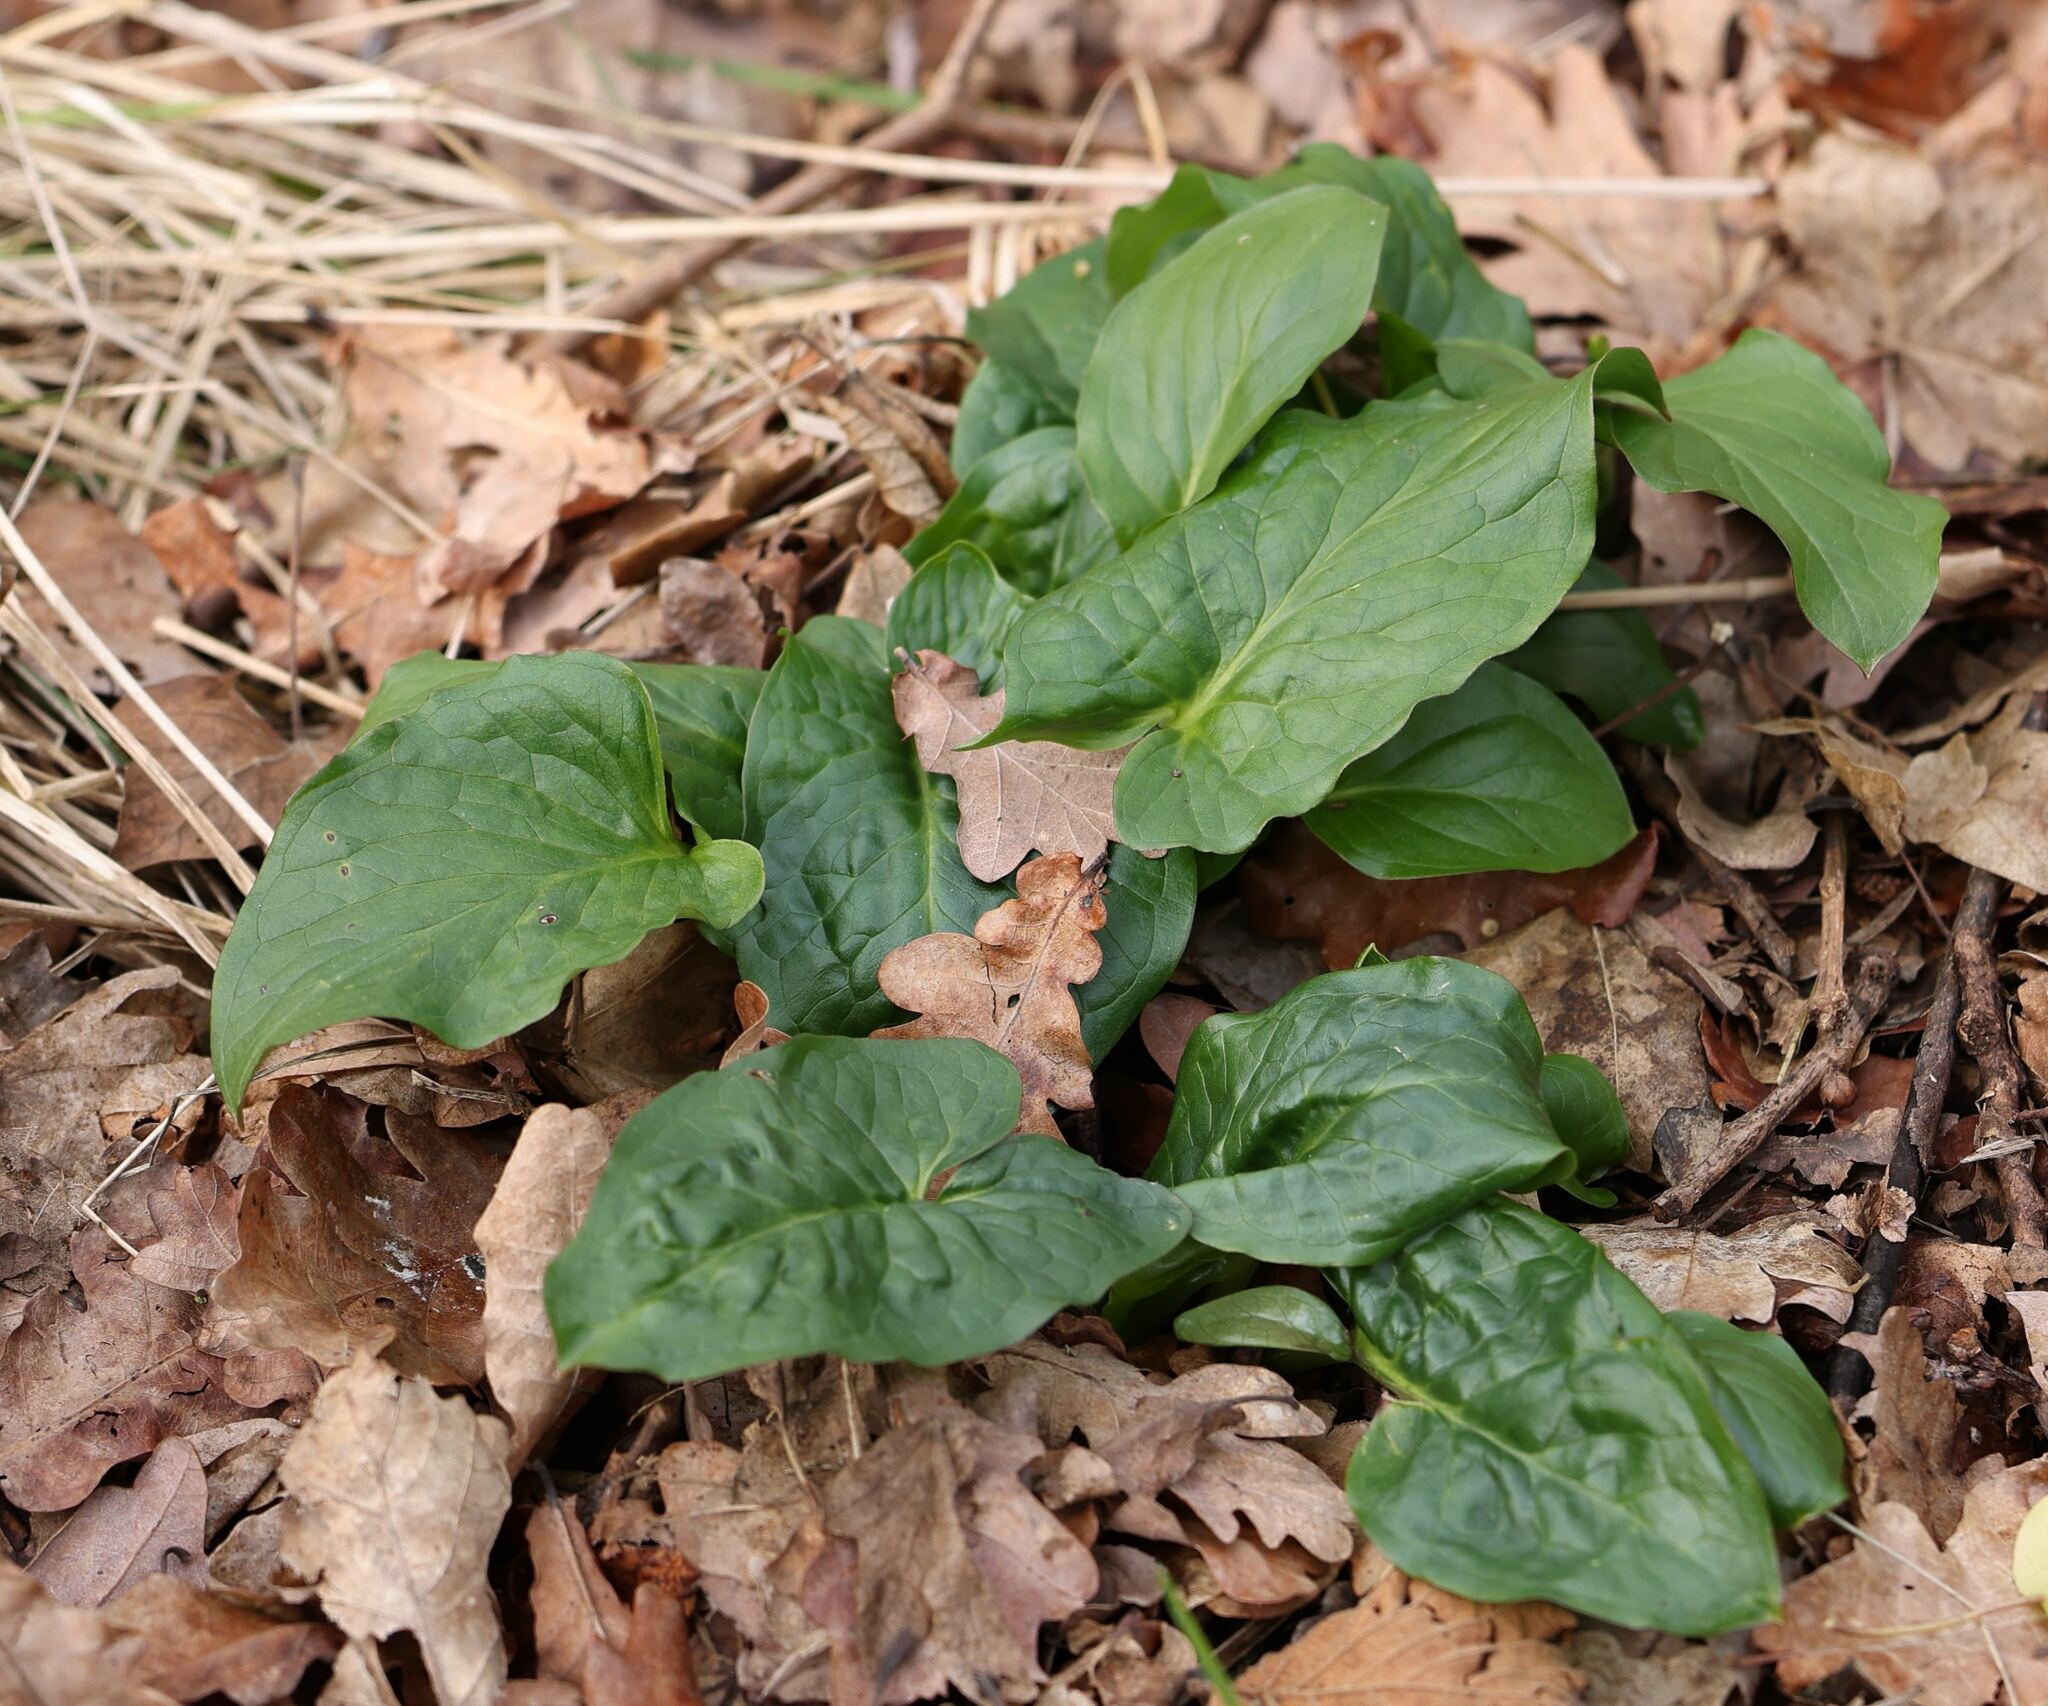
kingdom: Plantae
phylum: Tracheophyta
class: Liliopsida
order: Alismatales
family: Araceae
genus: Arum
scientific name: Arum maculatum
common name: Lords-and-ladies
